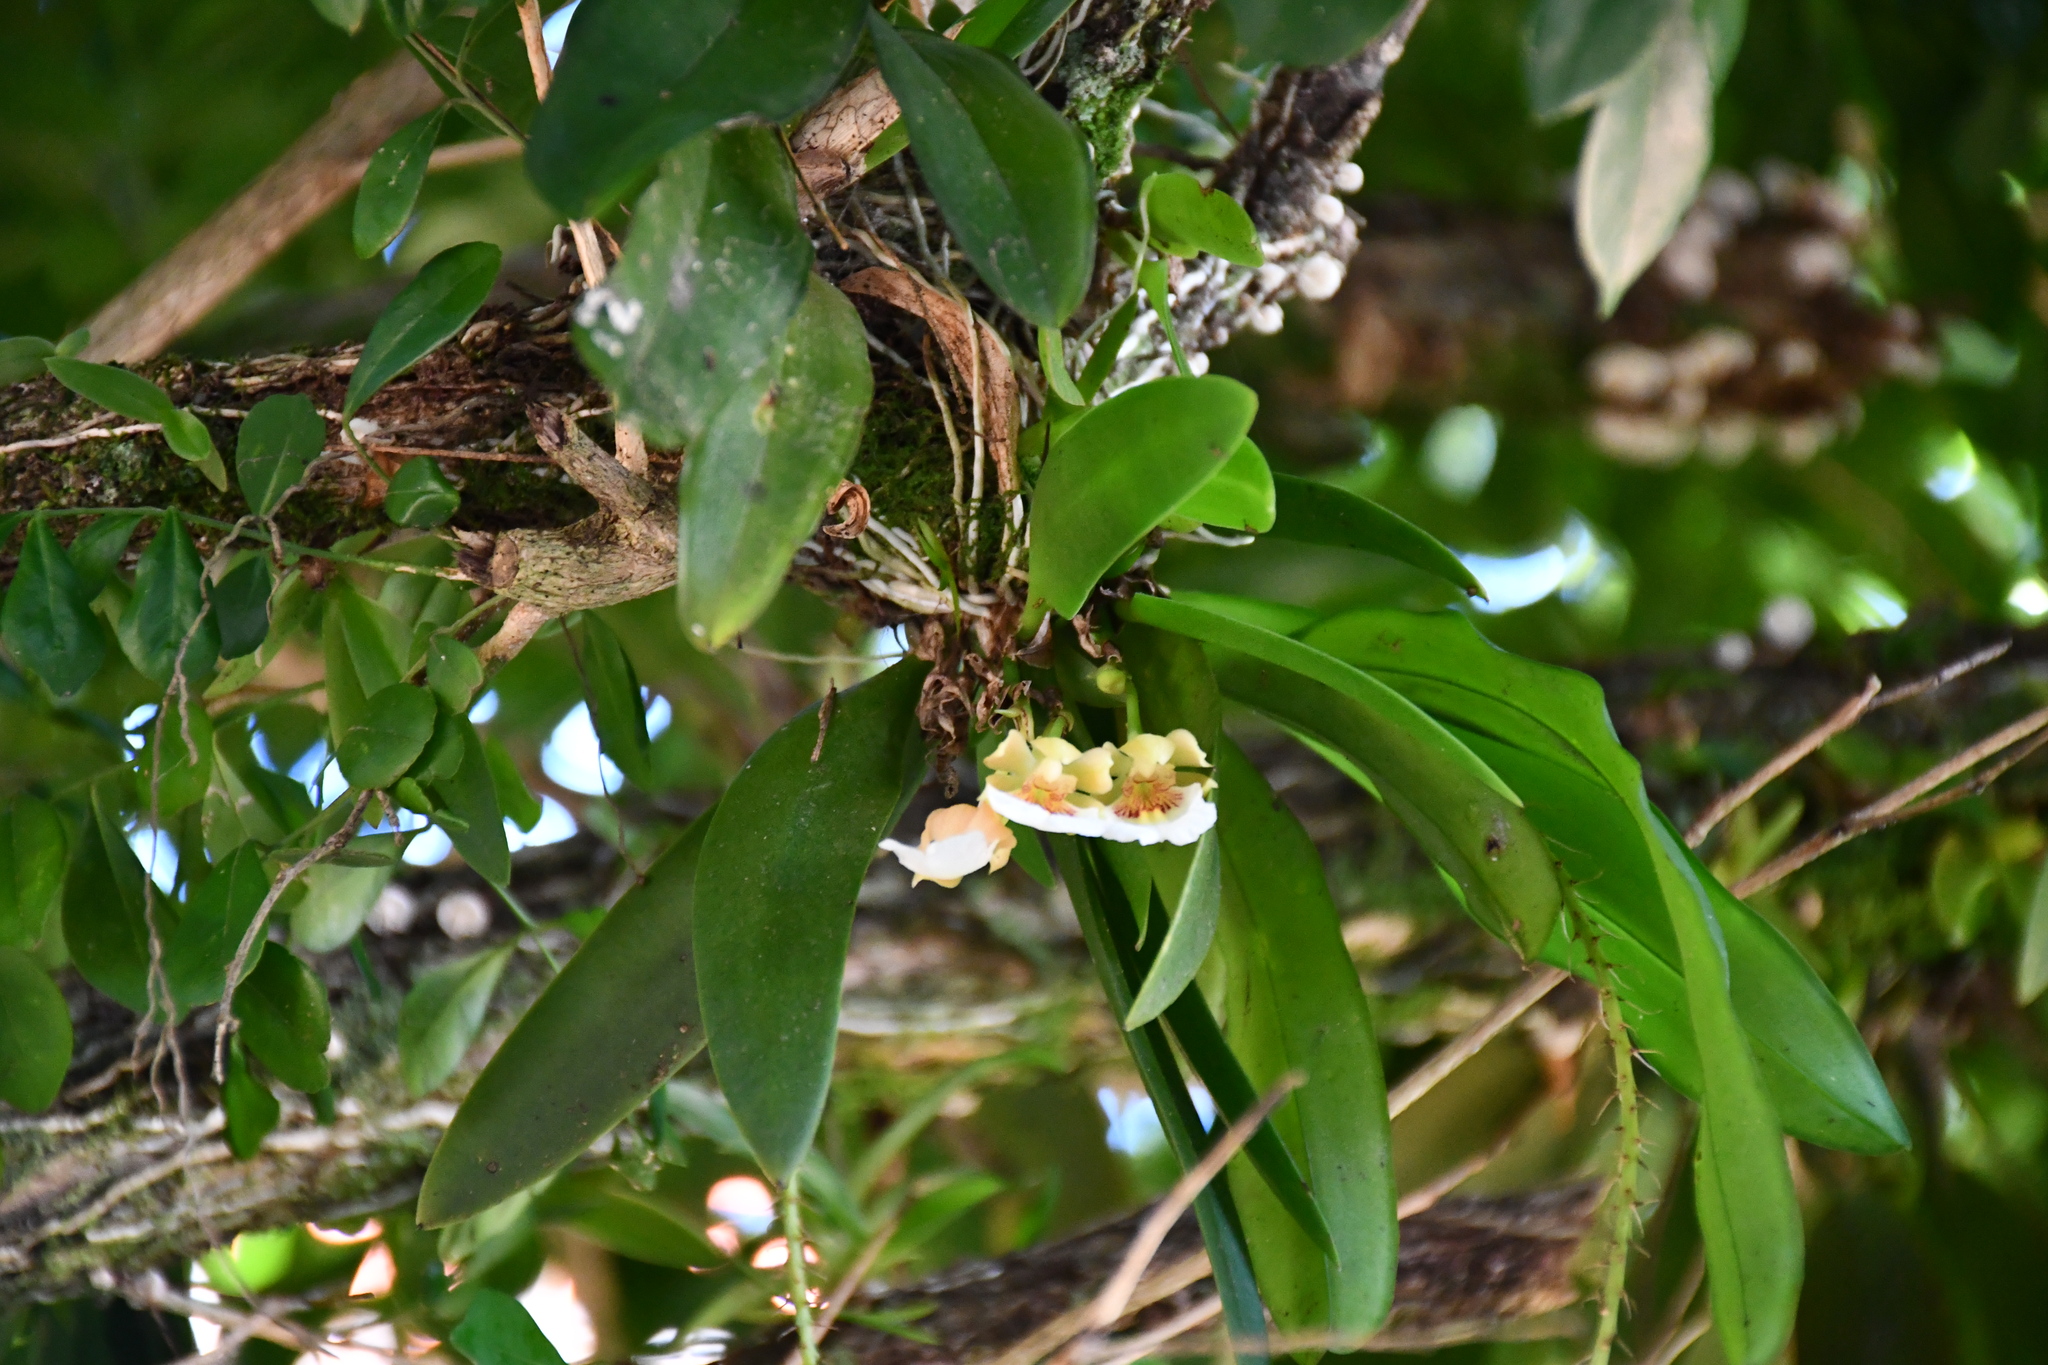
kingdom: Plantae
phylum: Tracheophyta
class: Liliopsida
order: Asparagales
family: Orchidaceae
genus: Trichocentrum
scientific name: Trichocentrum fuscum
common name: Mule-ear orchid
